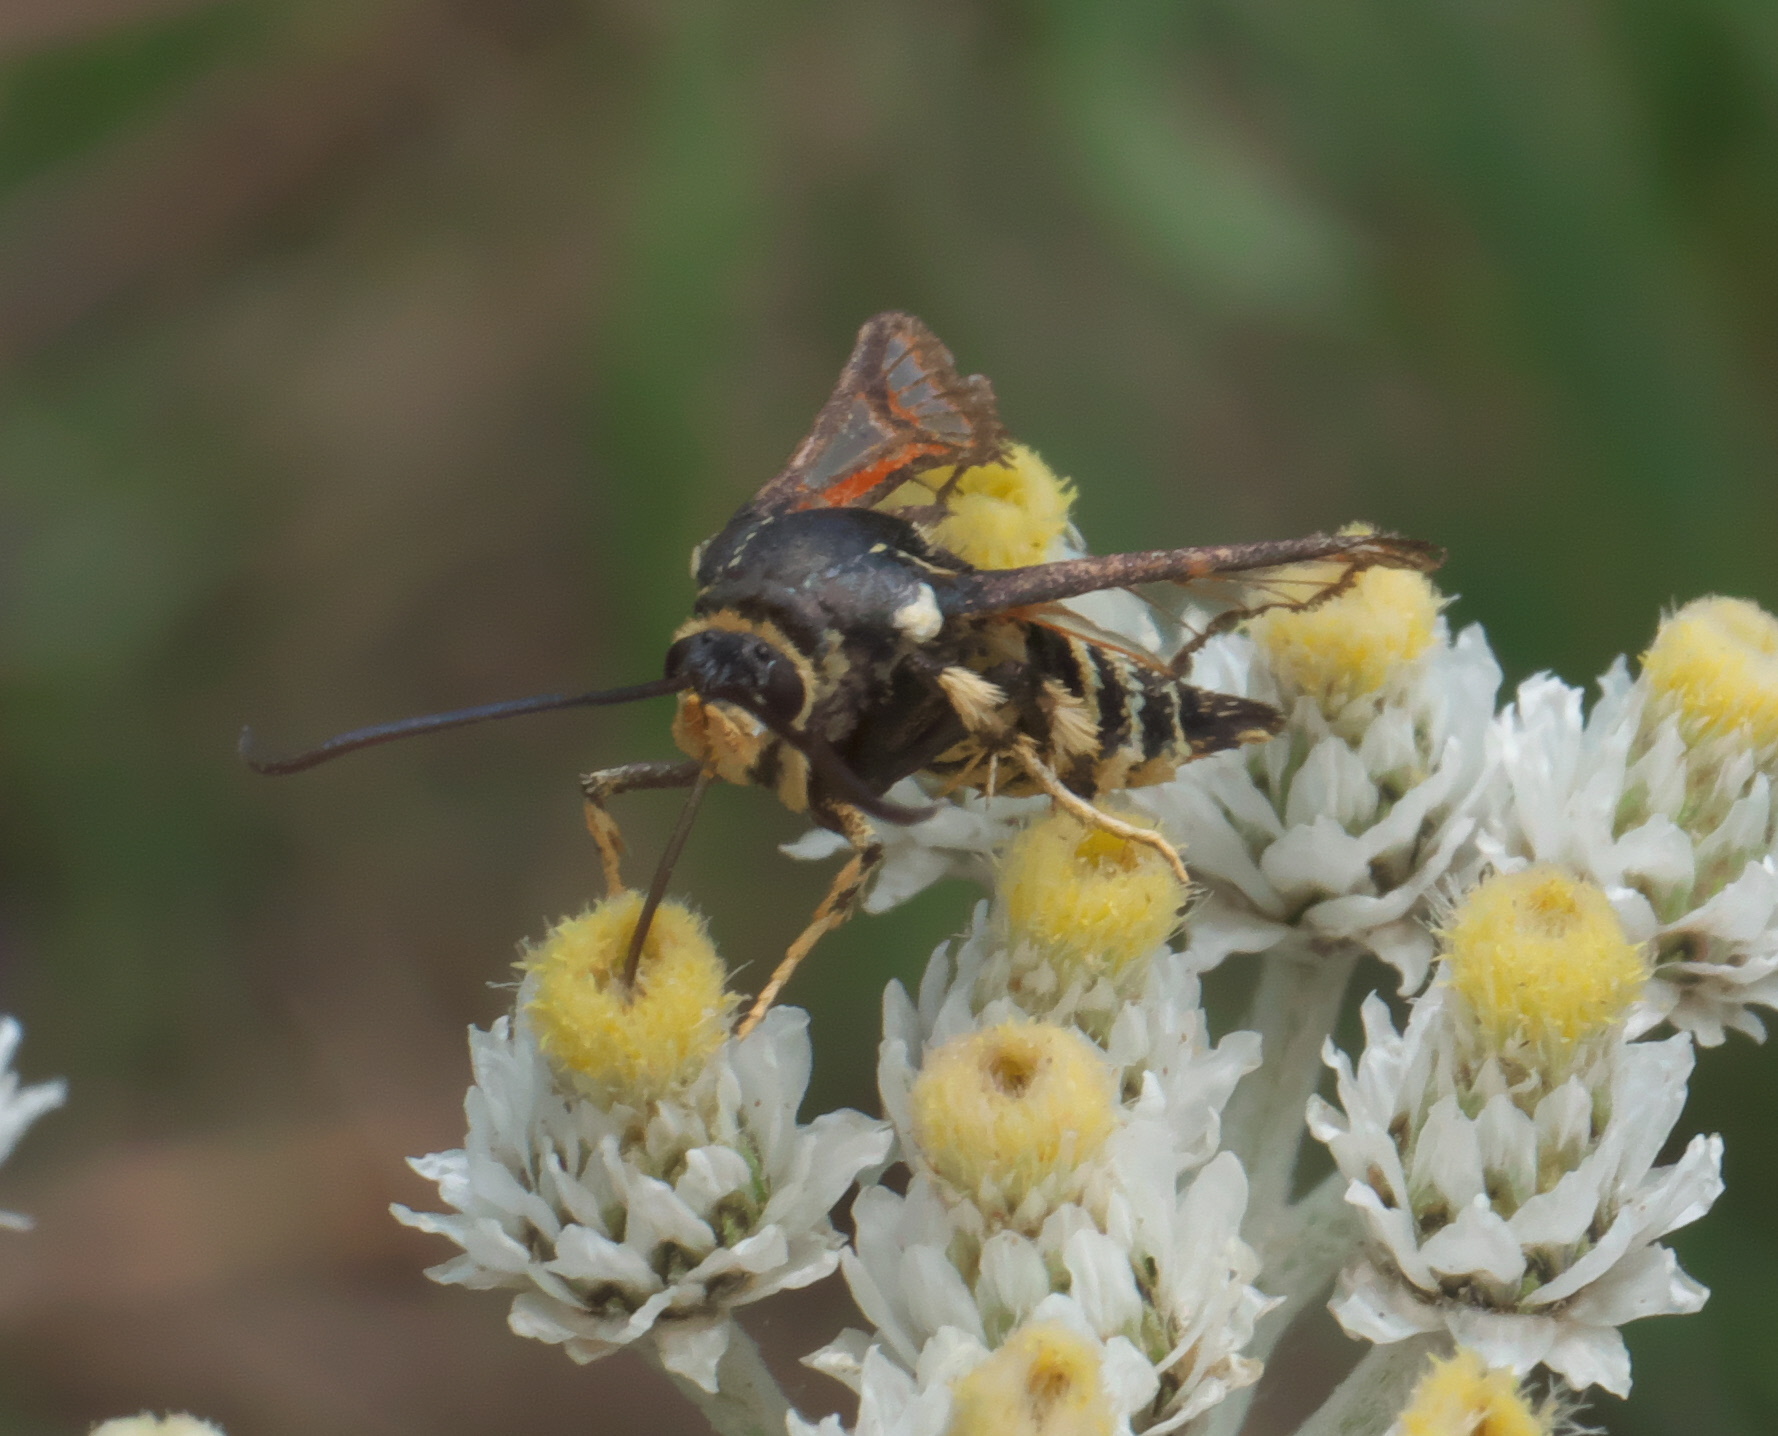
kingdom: Animalia
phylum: Arthropoda
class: Insecta
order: Lepidoptera
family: Sesiidae
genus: Albuna
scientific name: Albuna pyramidalis
